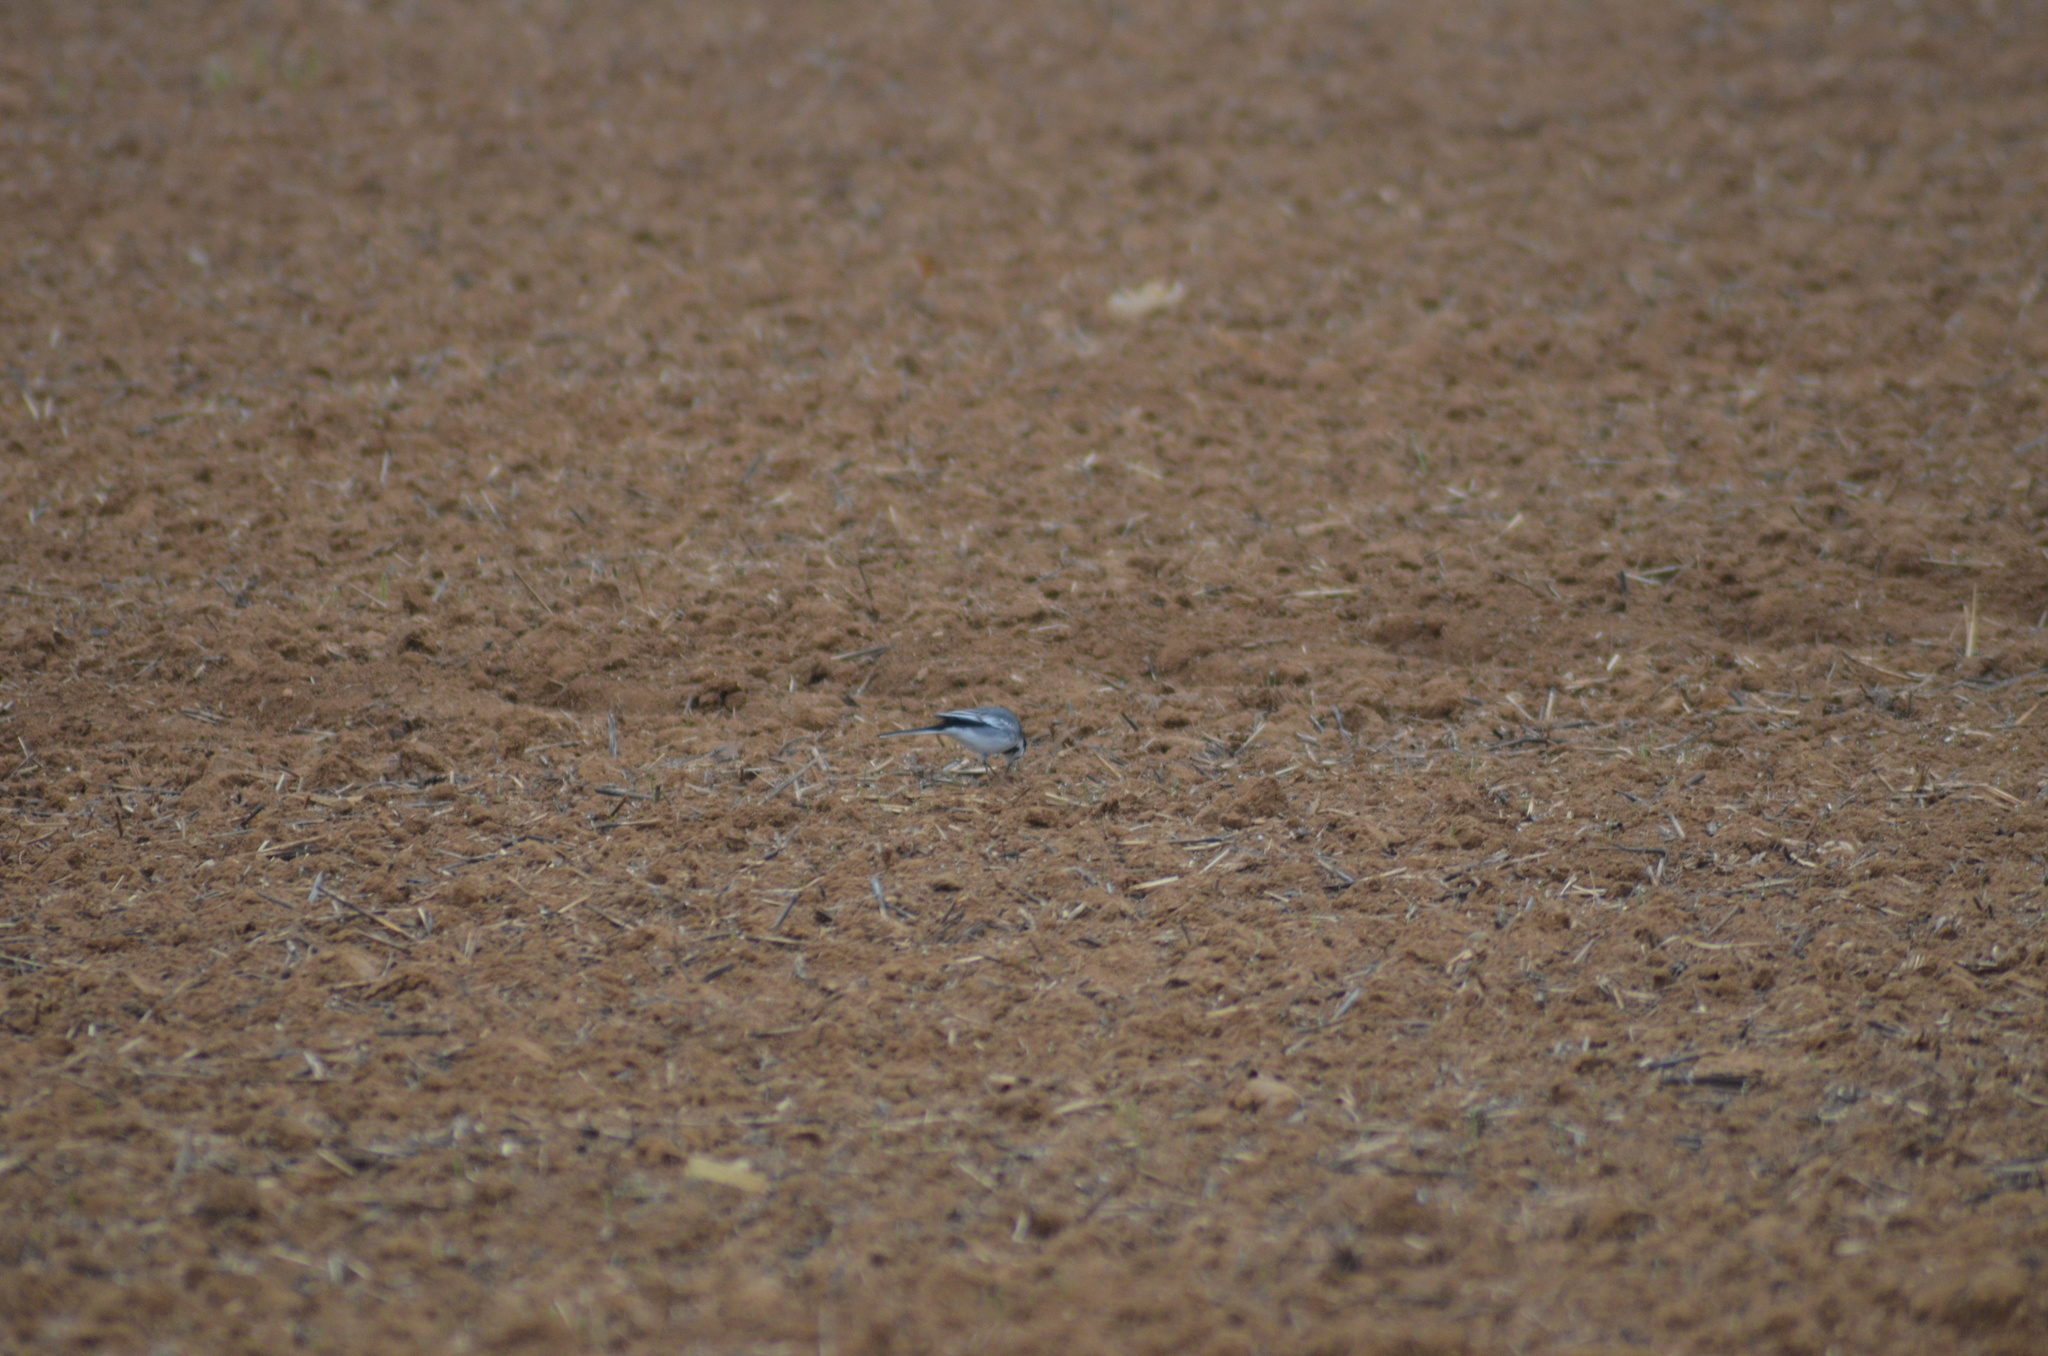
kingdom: Animalia
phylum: Chordata
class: Aves
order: Passeriformes
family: Motacillidae
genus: Motacilla
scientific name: Motacilla alba
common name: White wagtail
